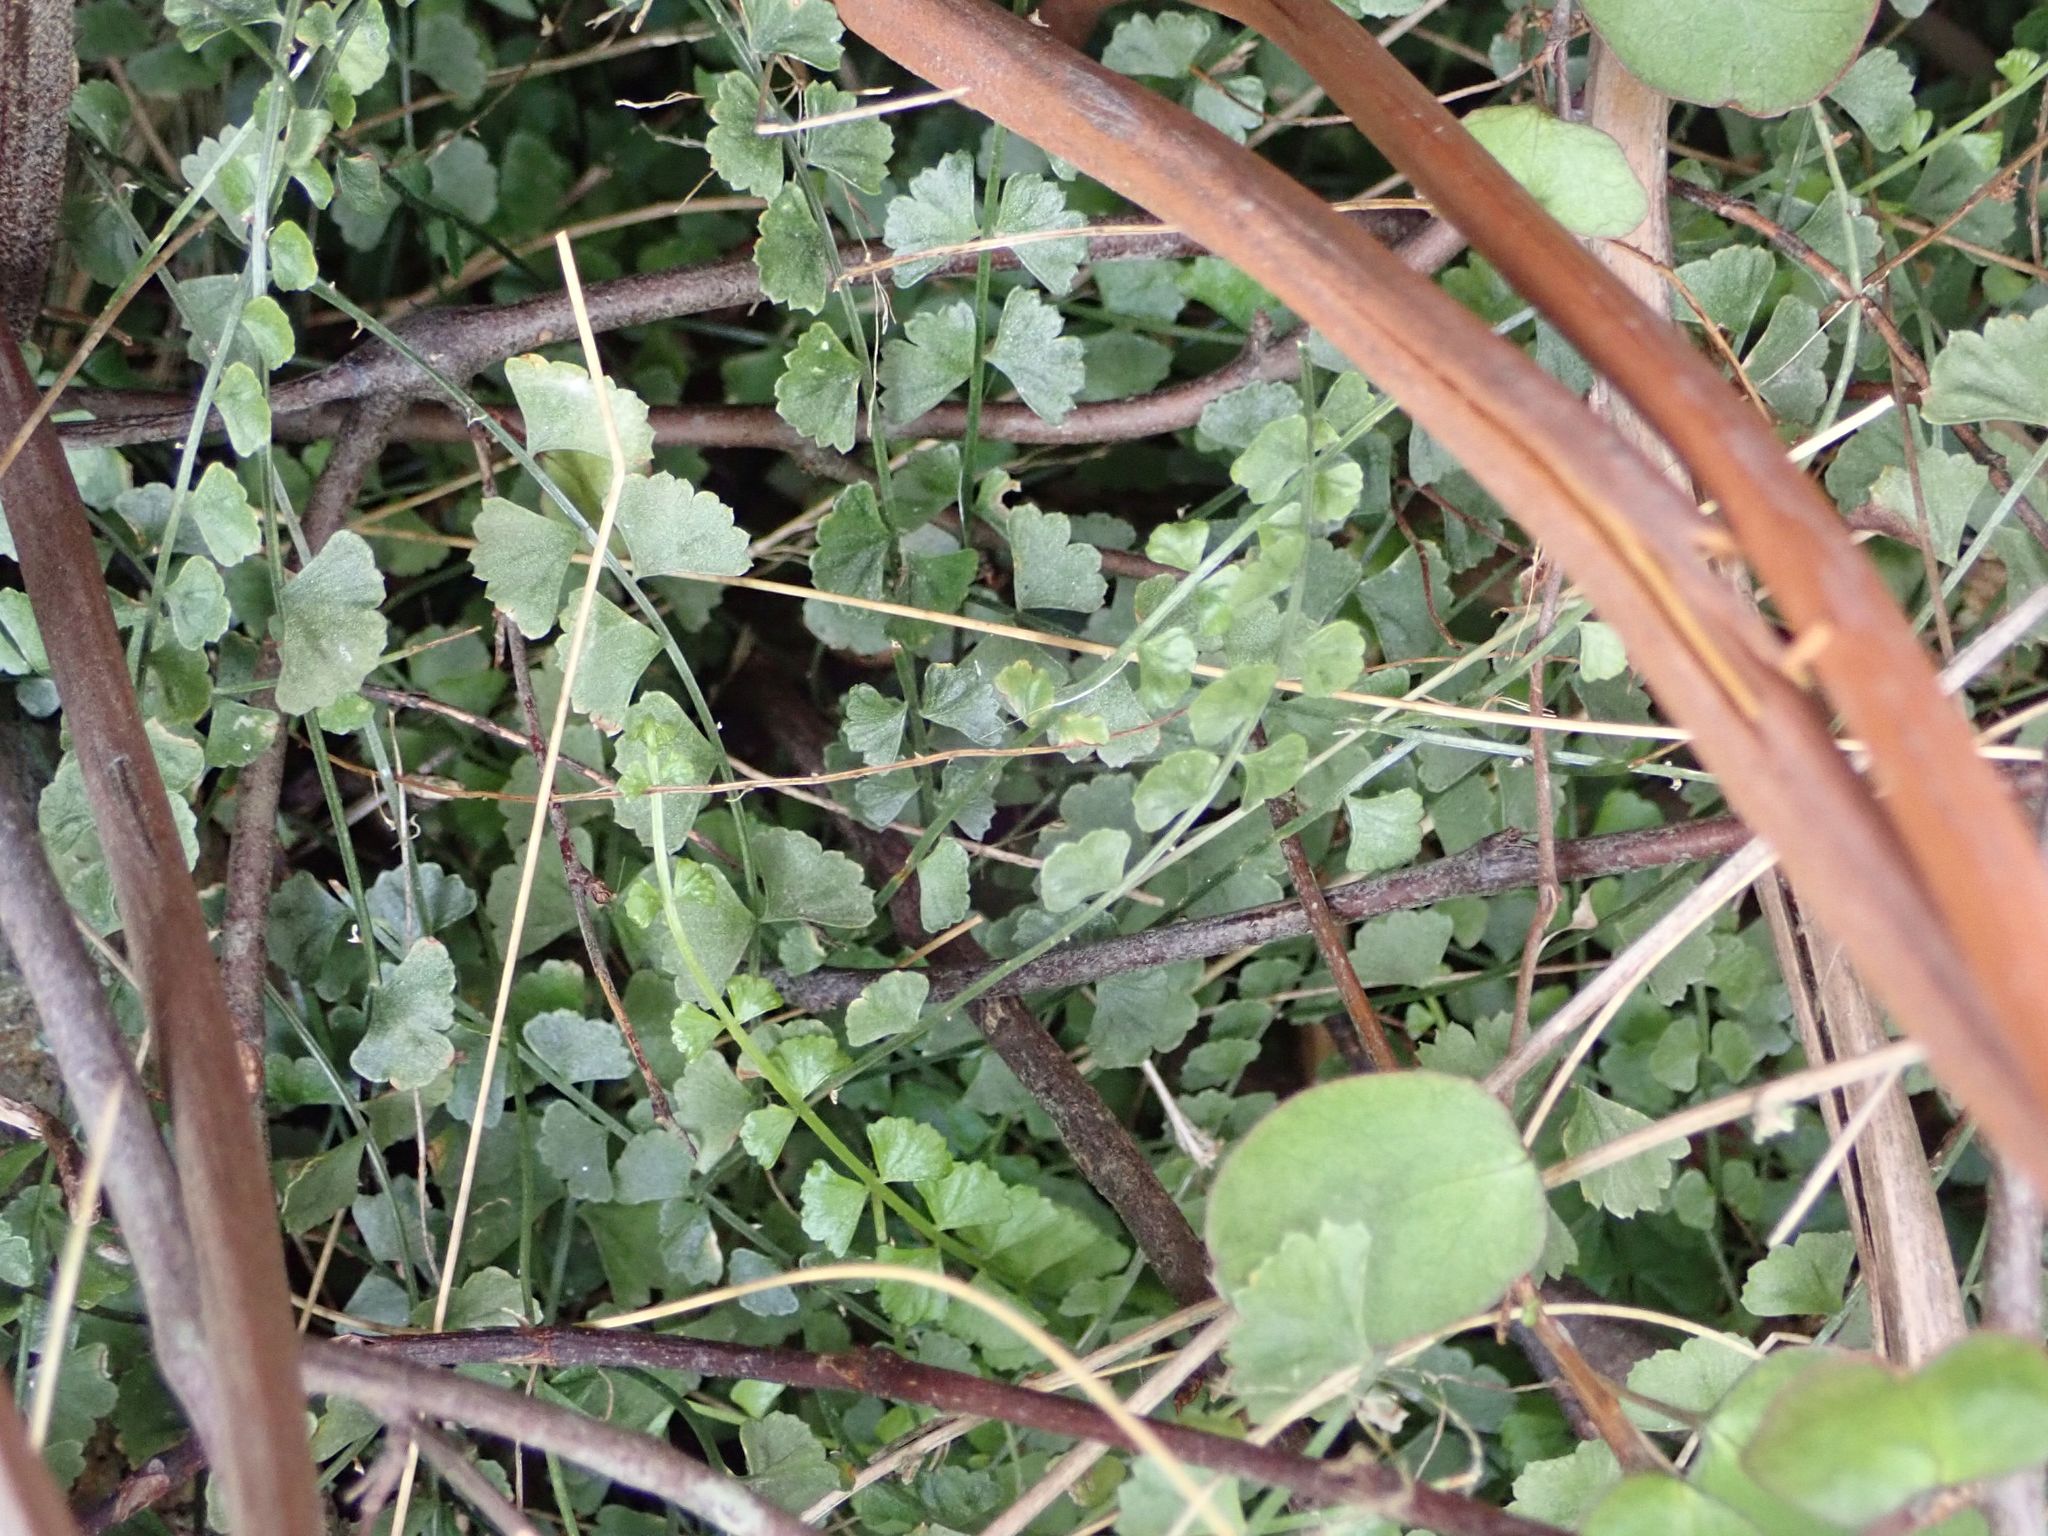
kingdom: Plantae
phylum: Tracheophyta
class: Polypodiopsida
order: Polypodiales
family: Aspleniaceae
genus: Asplenium
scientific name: Asplenium flabellifolium
